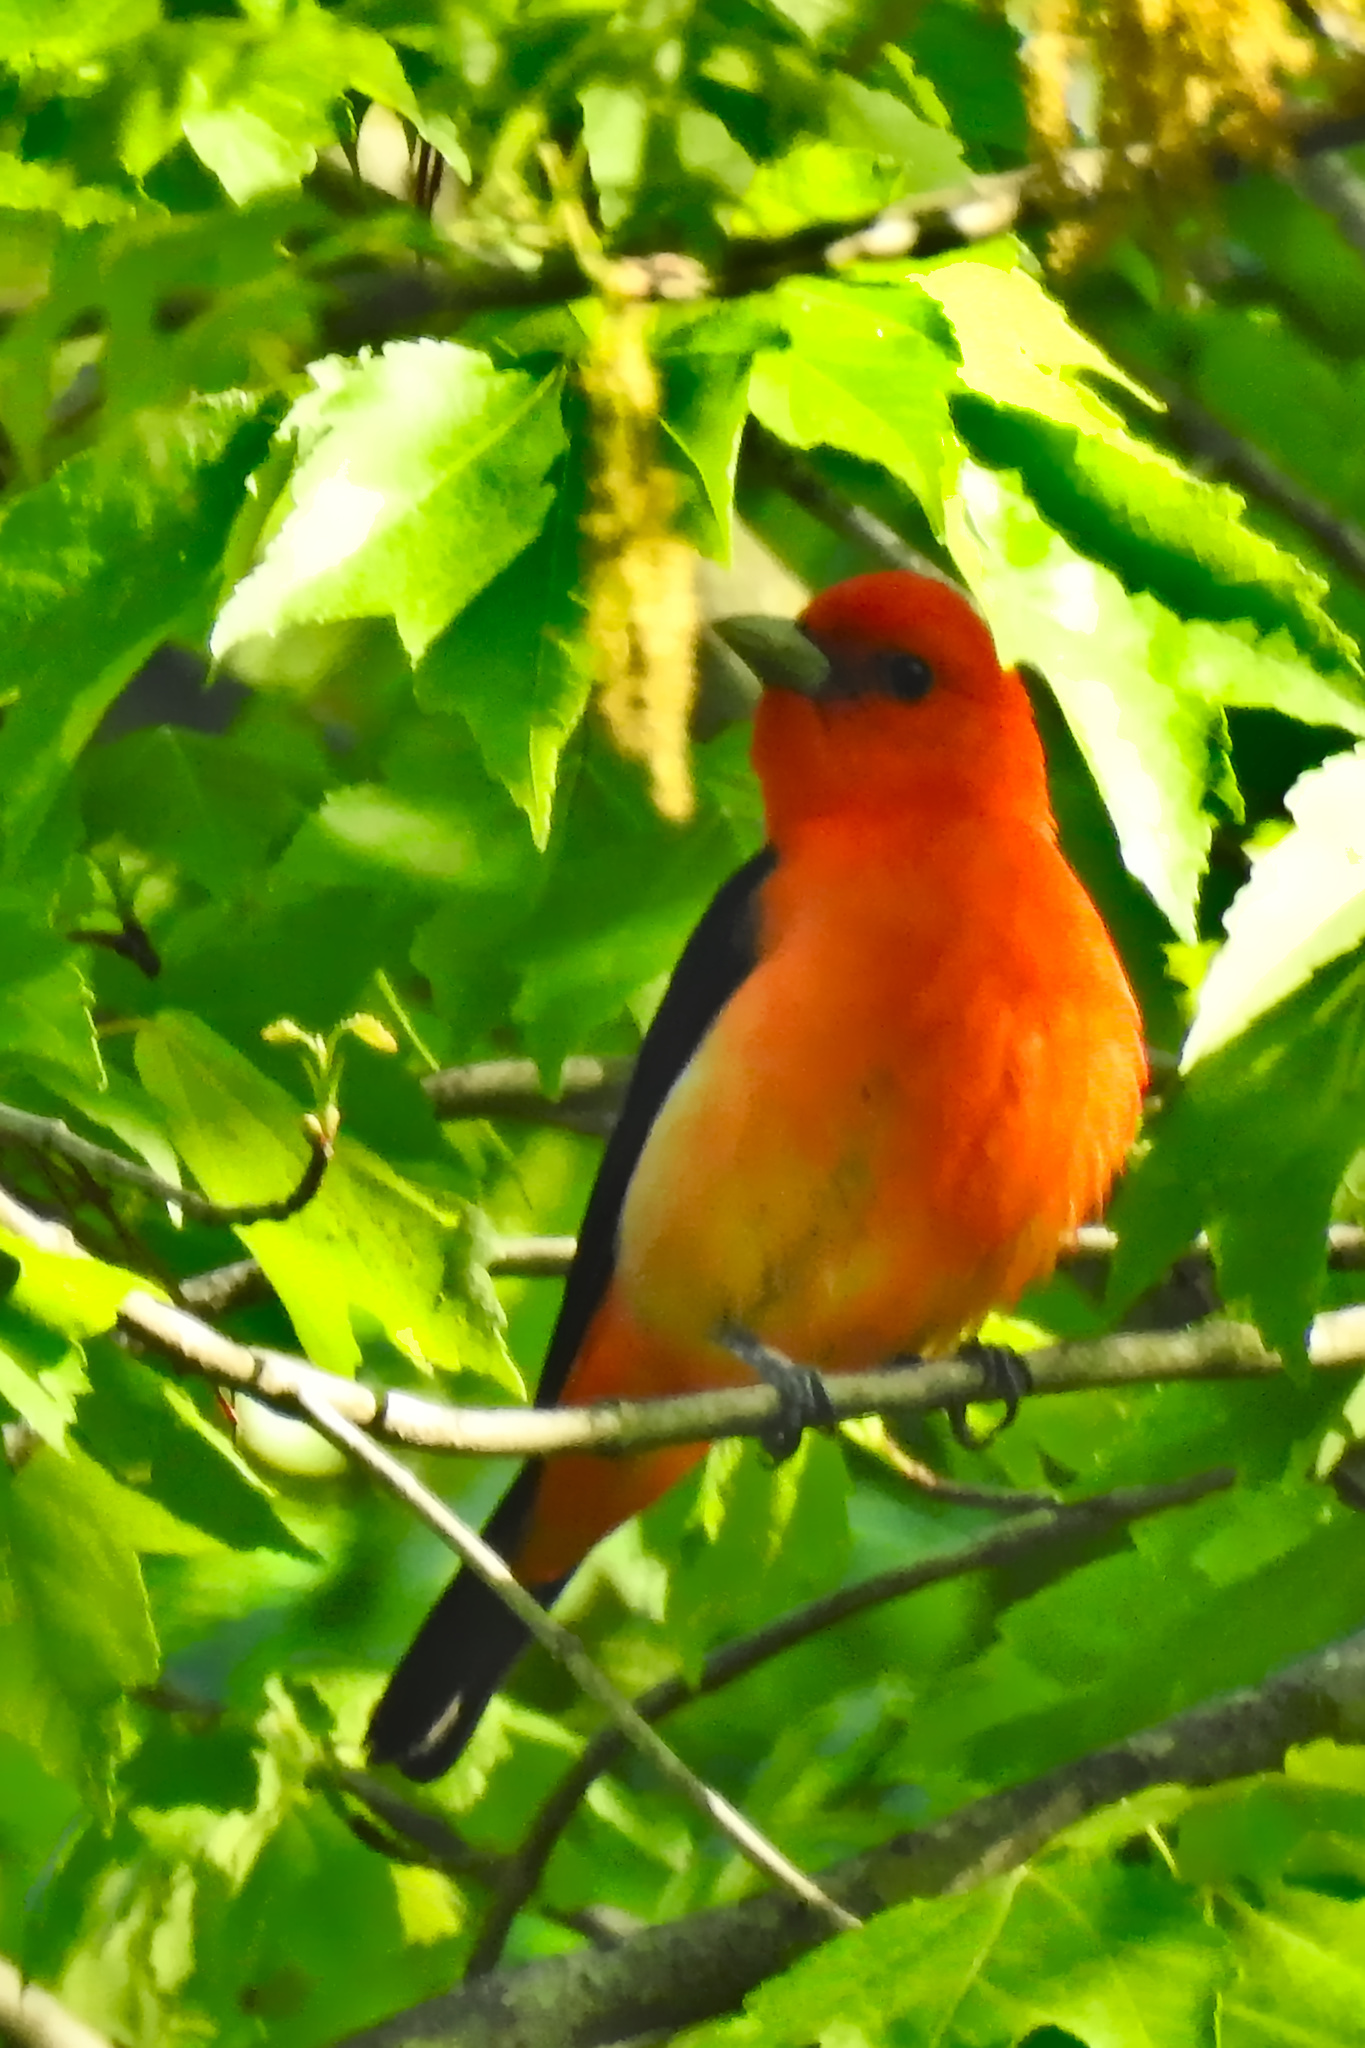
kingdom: Animalia
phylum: Chordata
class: Aves
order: Passeriformes
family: Cardinalidae
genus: Piranga
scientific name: Piranga olivacea
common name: Scarlet tanager
